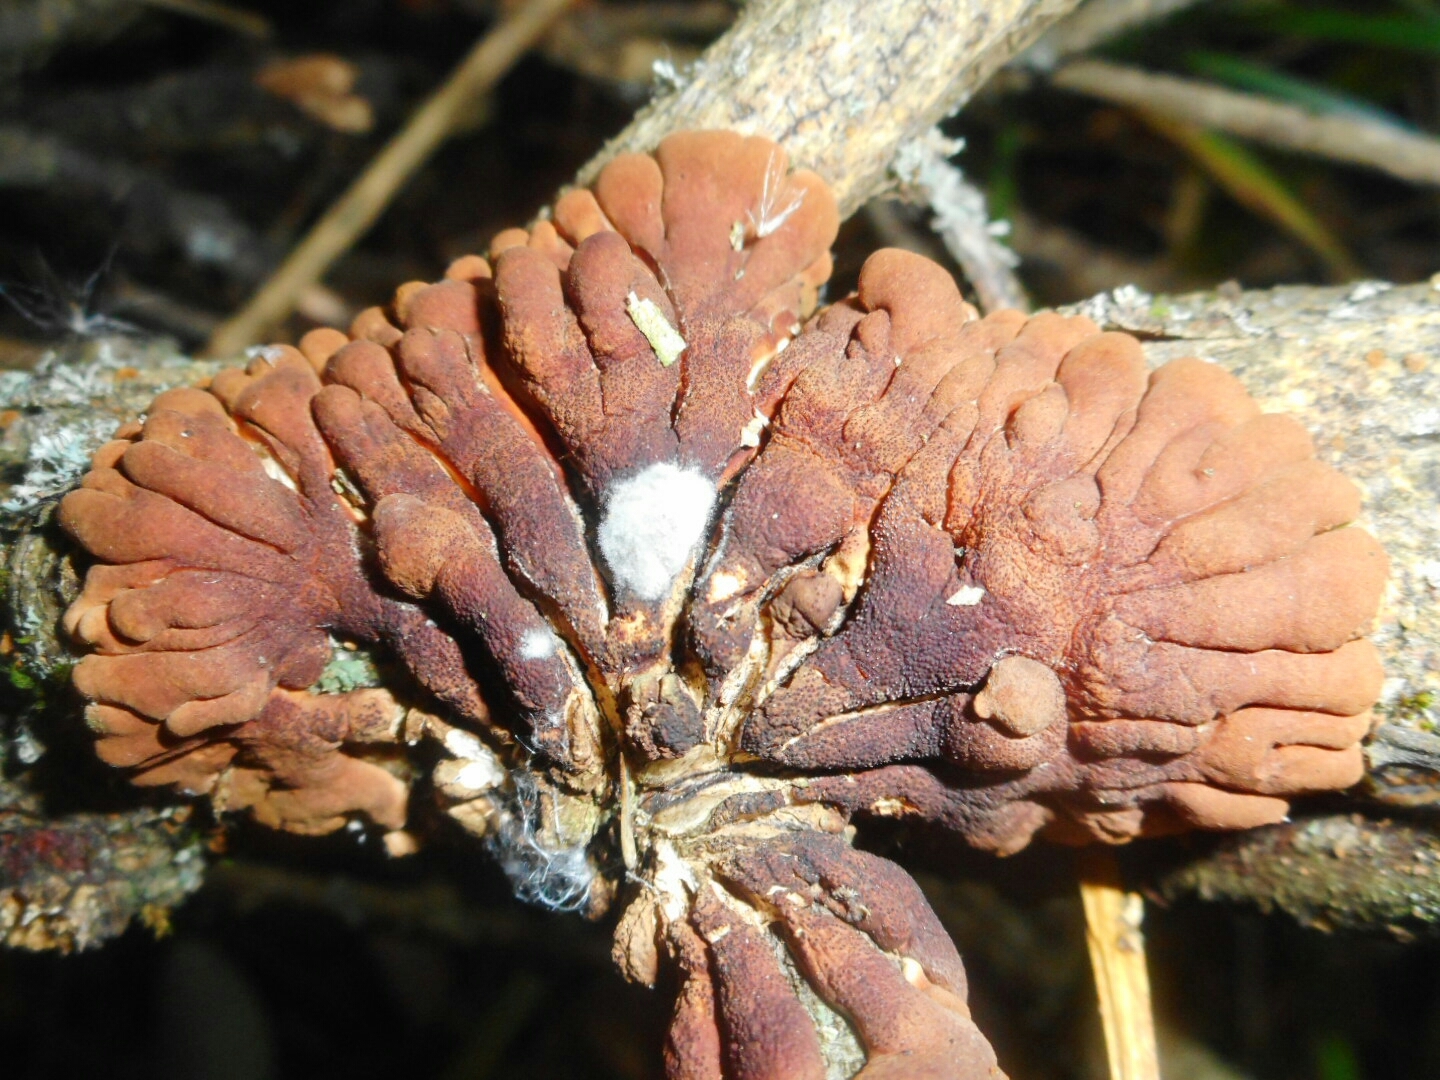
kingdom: Fungi
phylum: Ascomycota
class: Sordariomycetes
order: Hypocreales
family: Hypocreaceae
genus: Hypocreopsis
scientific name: Hypocreopsis lichenoides
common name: Willow gloves
